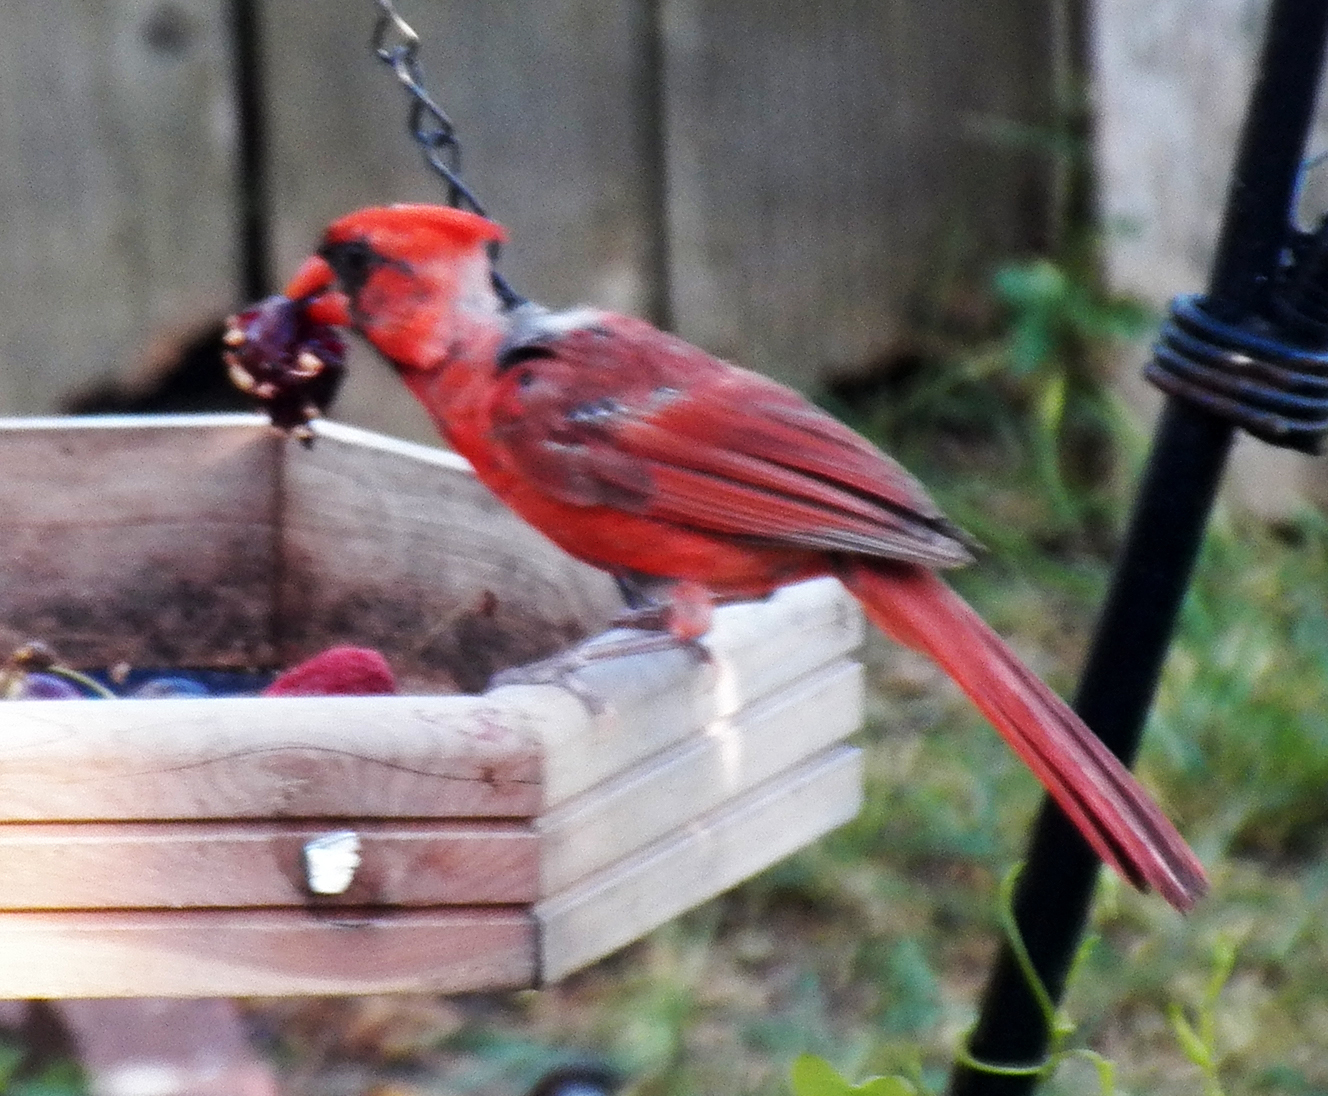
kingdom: Animalia
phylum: Chordata
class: Aves
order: Passeriformes
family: Cardinalidae
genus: Cardinalis
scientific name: Cardinalis cardinalis
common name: Northern cardinal
